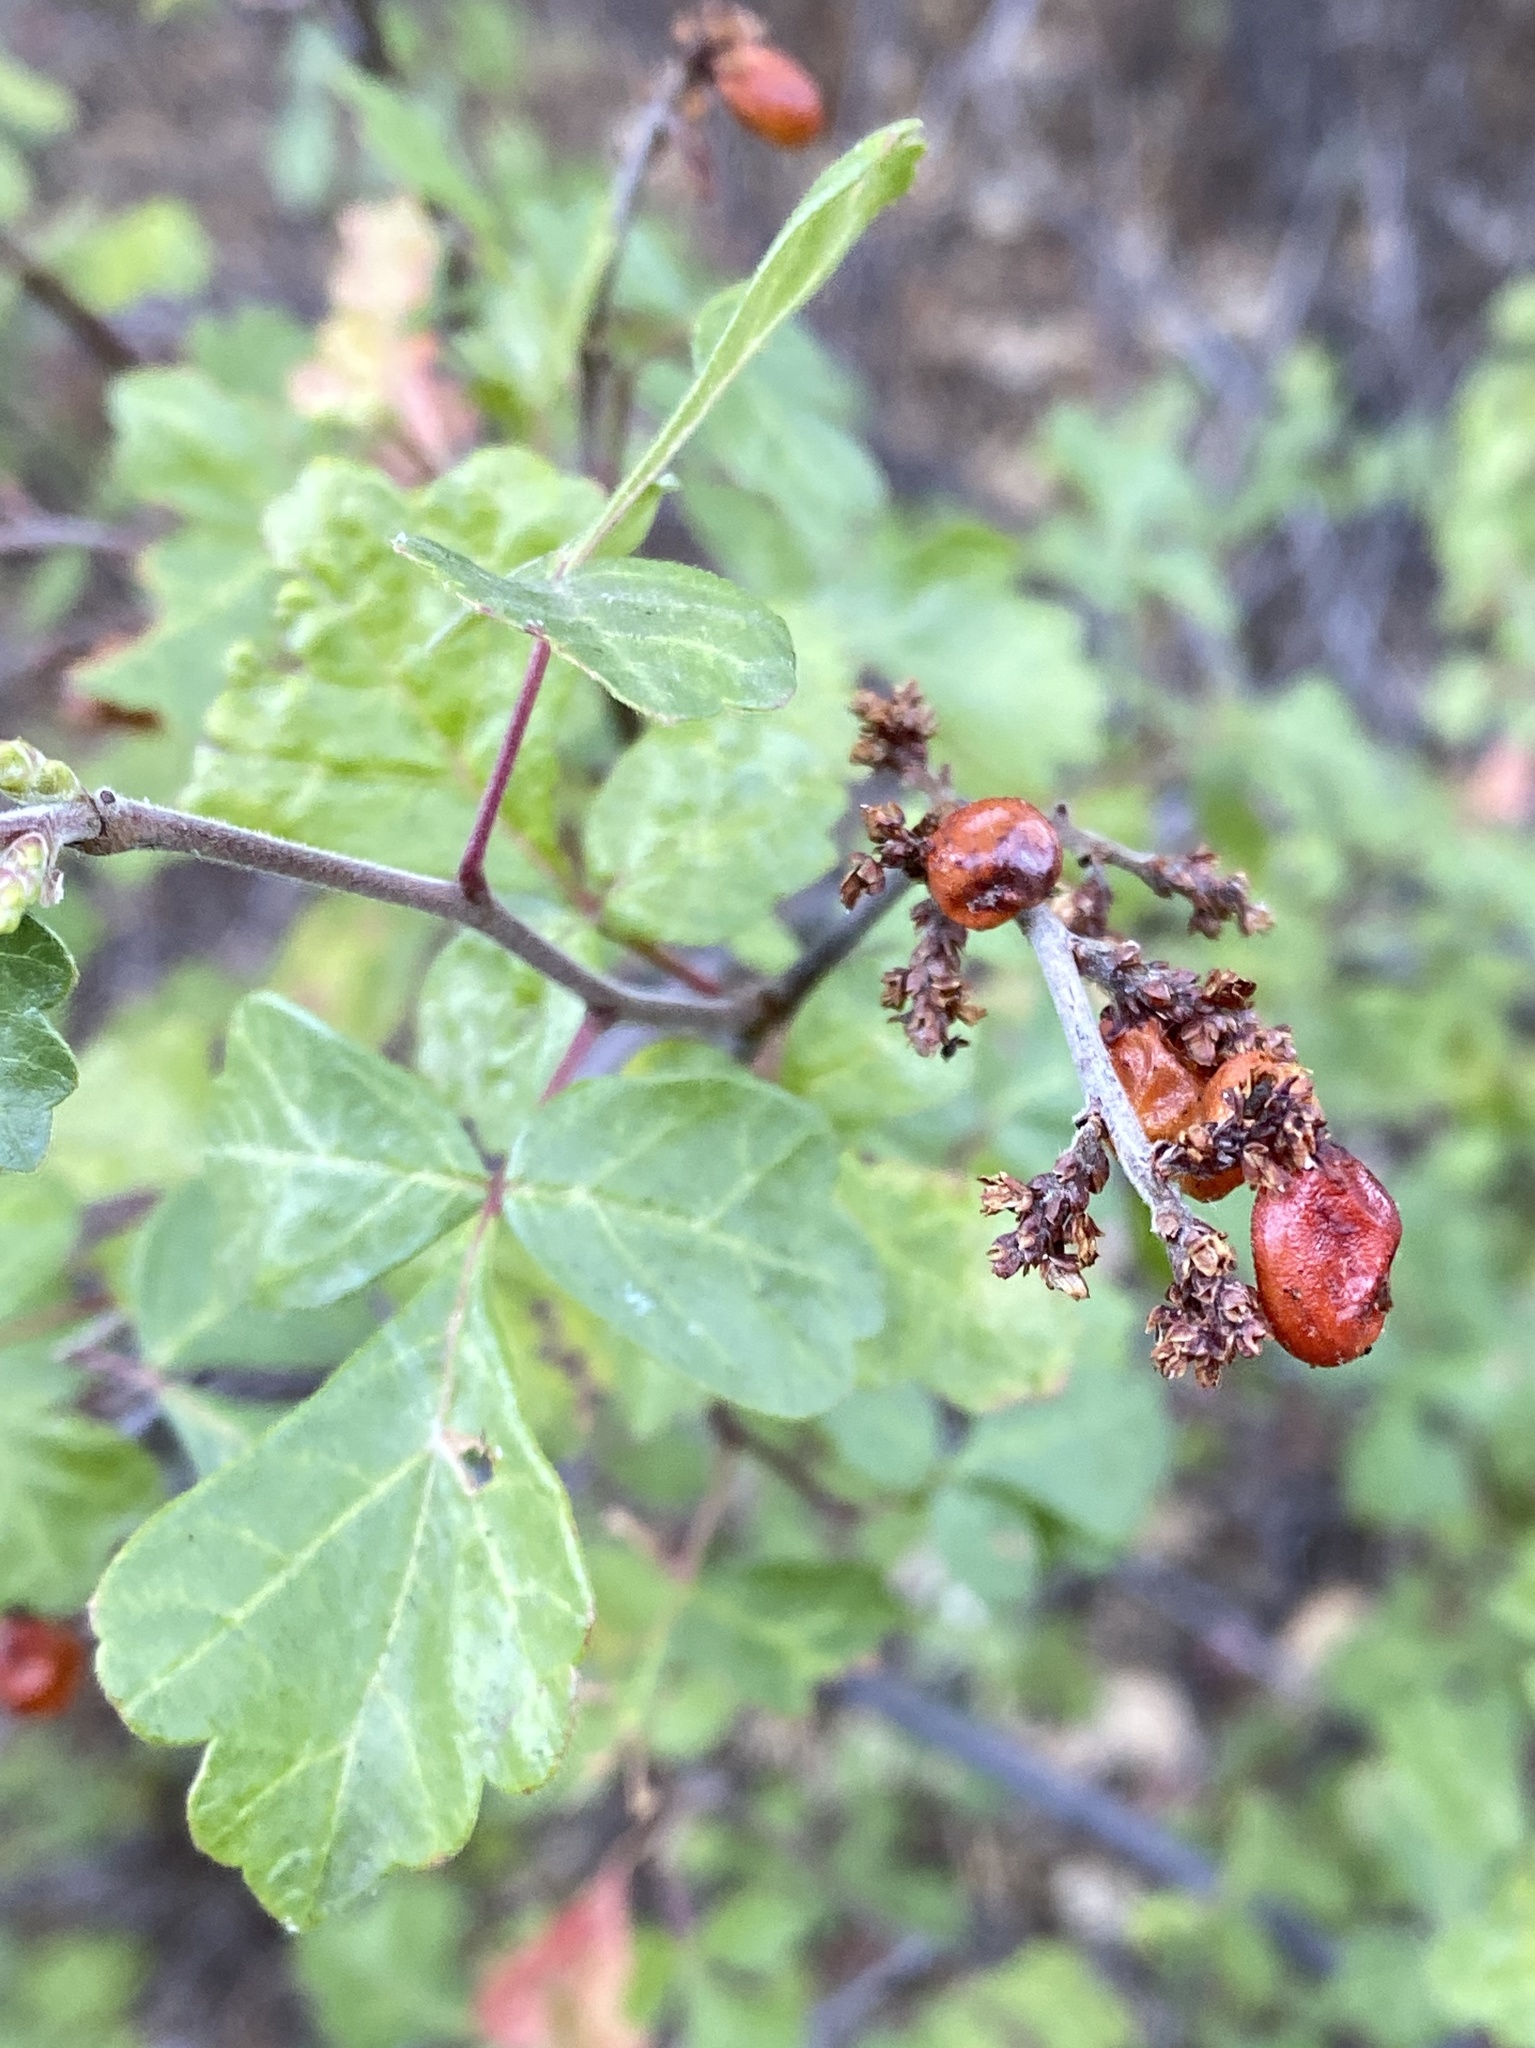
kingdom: Plantae
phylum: Tracheophyta
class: Magnoliopsida
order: Sapindales
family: Anacardiaceae
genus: Rhus
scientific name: Rhus aromatica
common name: Aromatic sumac
